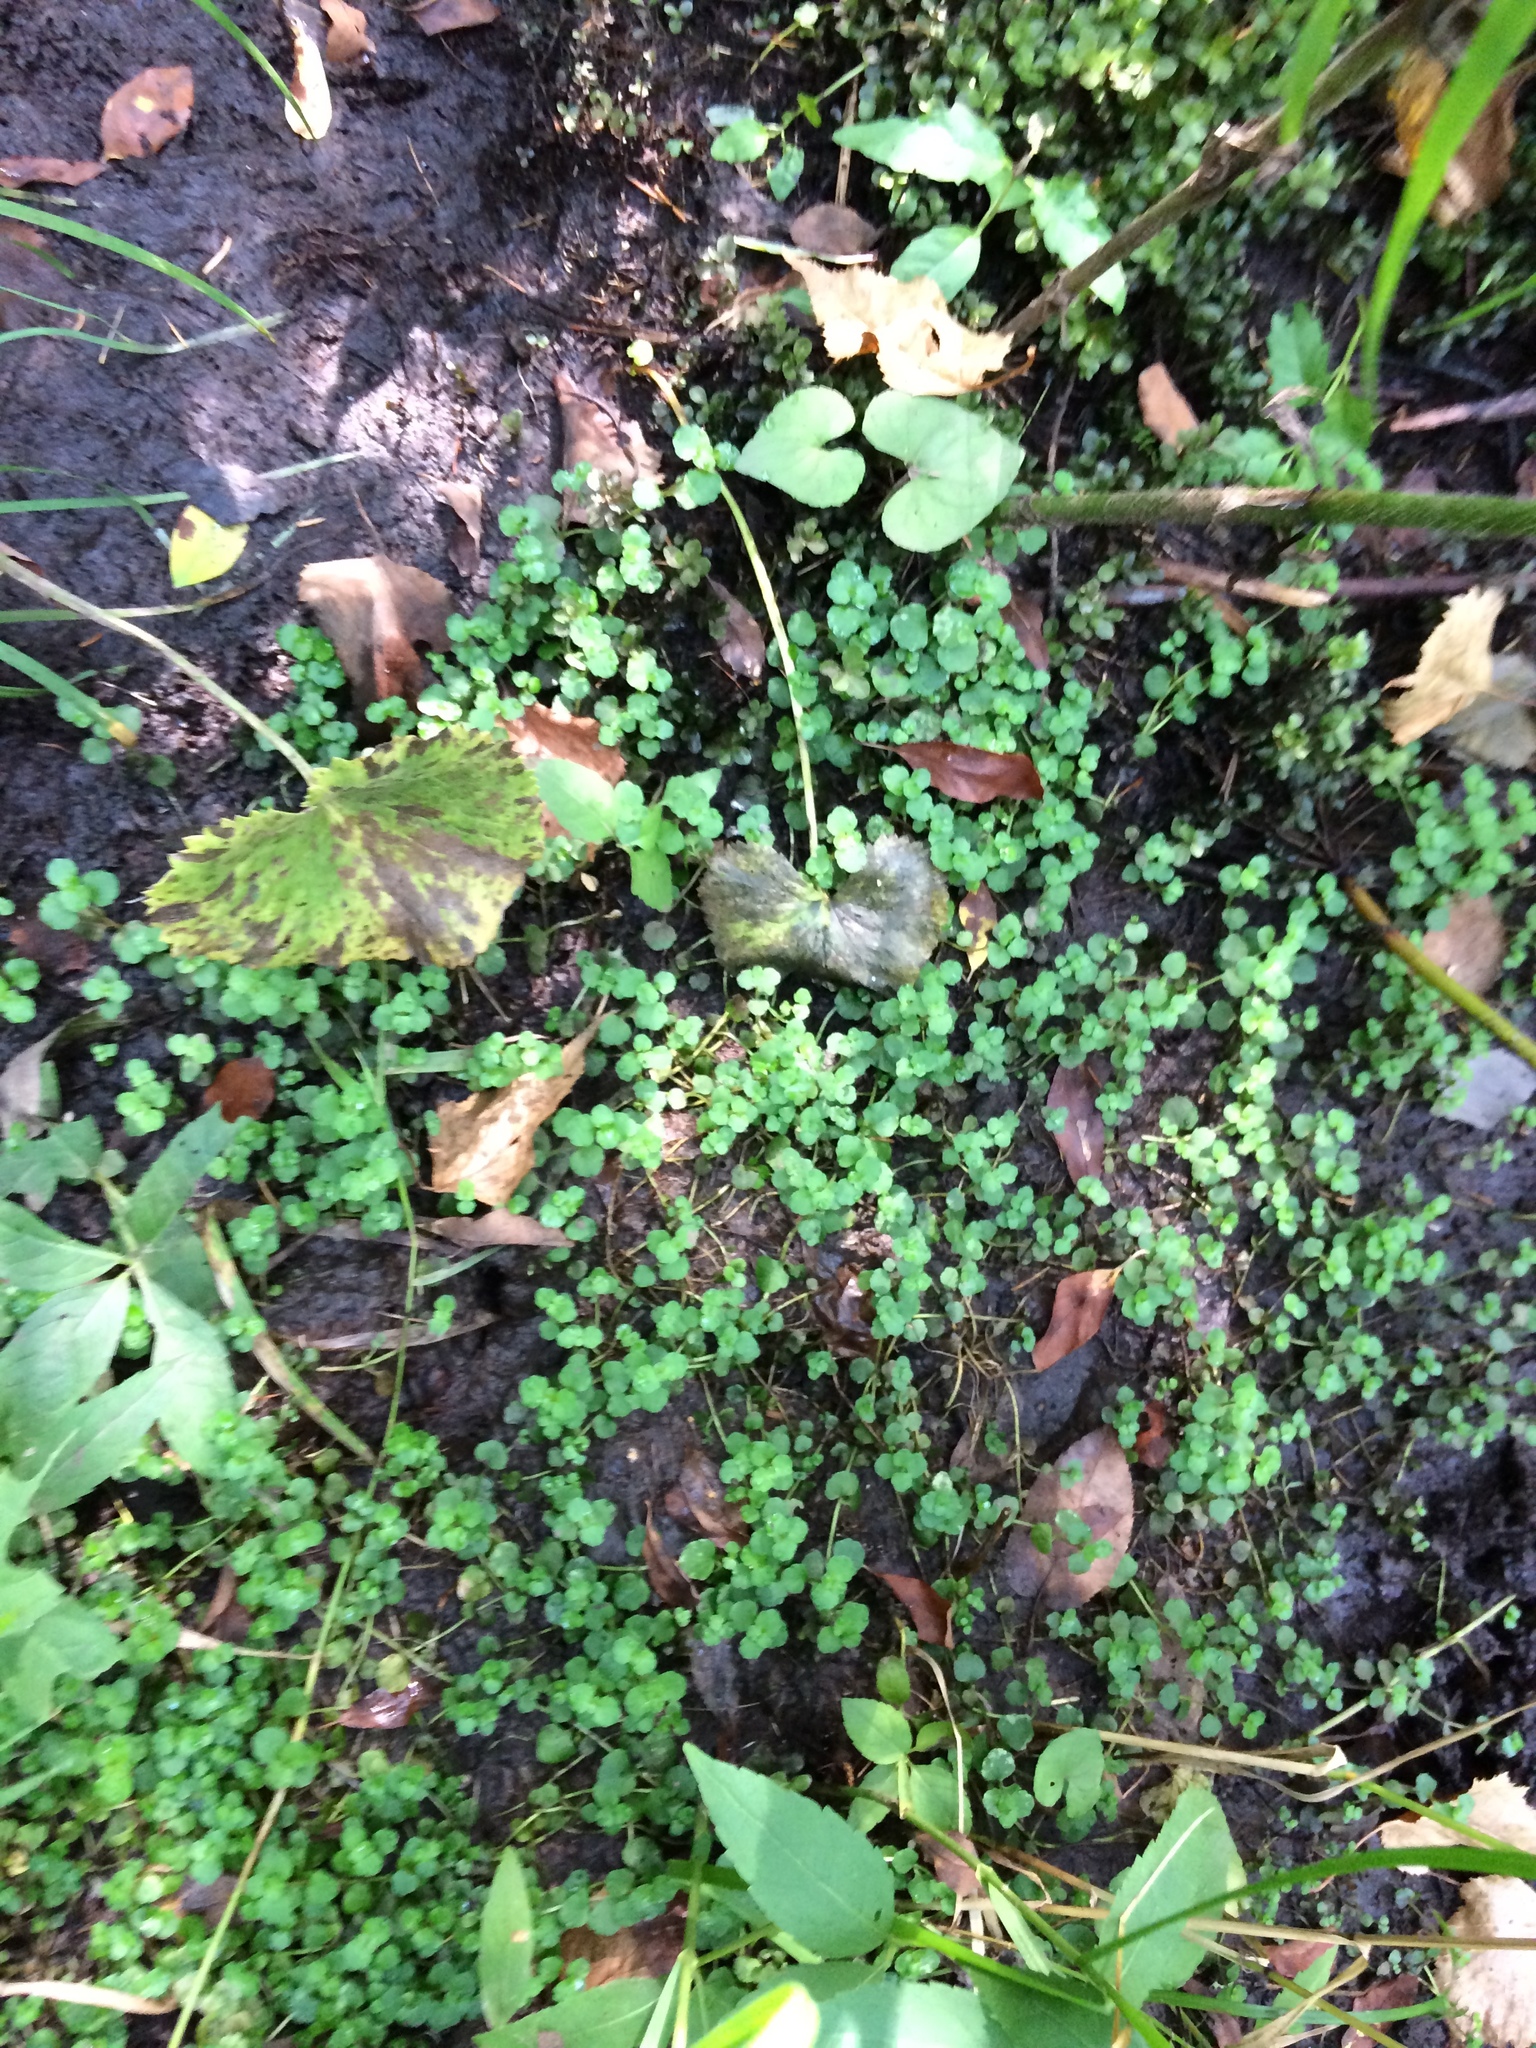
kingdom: Plantae
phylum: Tracheophyta
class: Magnoliopsida
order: Saxifragales
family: Saxifragaceae
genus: Chrysosplenium
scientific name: Chrysosplenium americanum
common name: American golden-saxifrage
